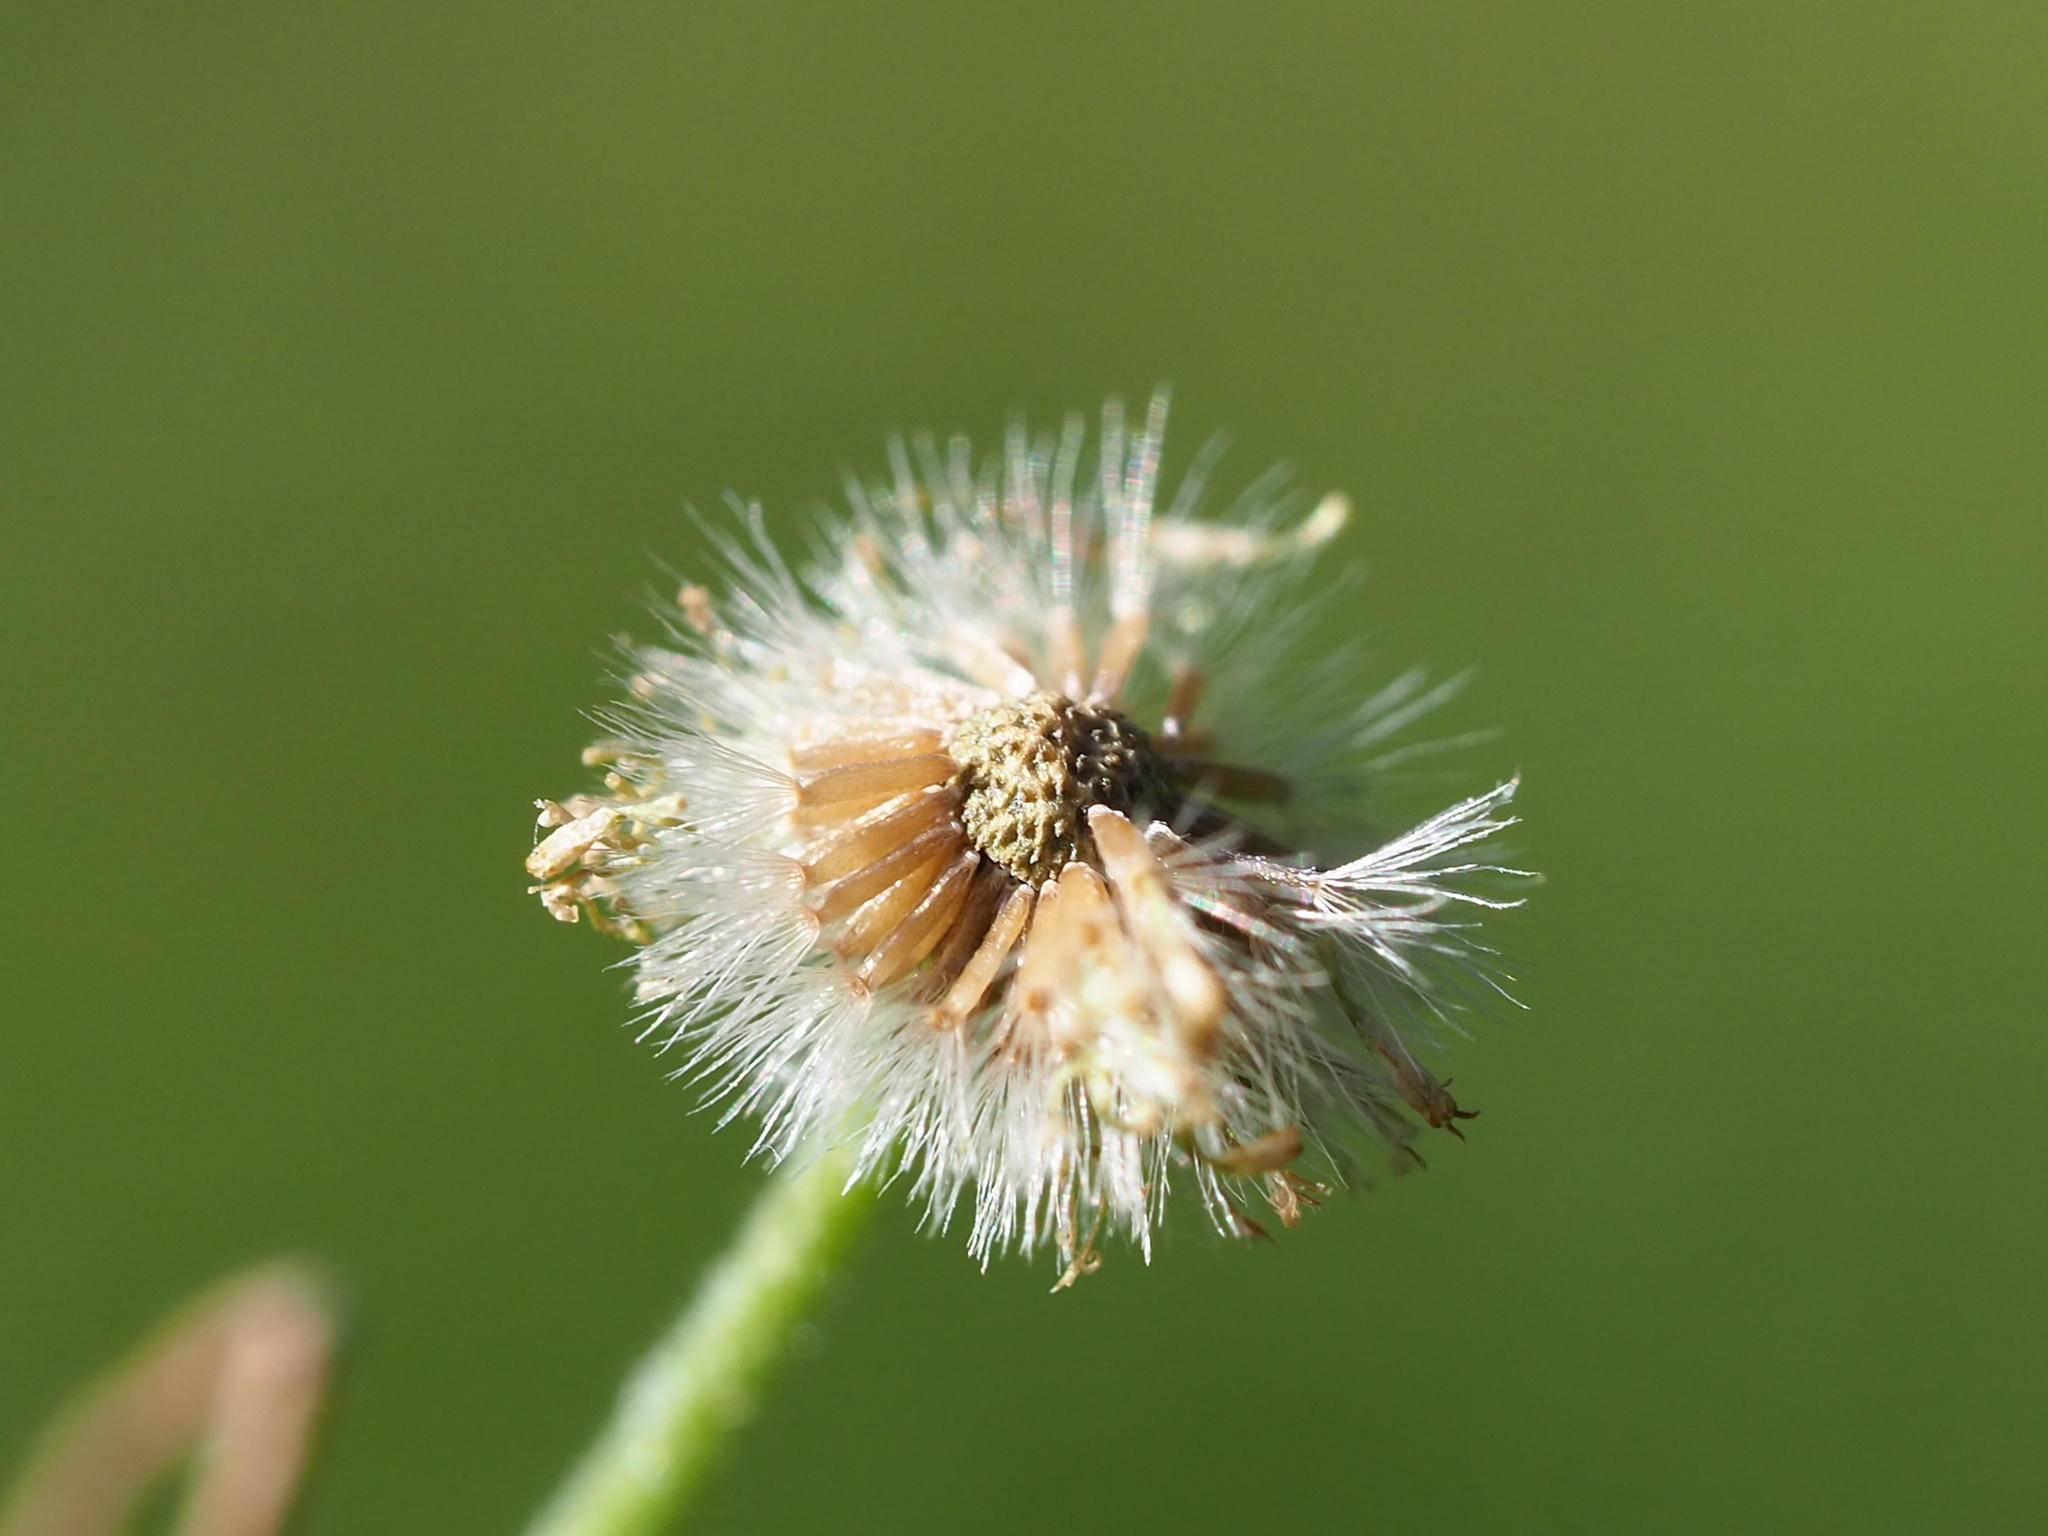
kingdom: Plantae
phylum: Tracheophyta
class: Magnoliopsida
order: Asterales
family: Asteraceae
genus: Erigeron
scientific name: Erigeron bellioides
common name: Bellorita
